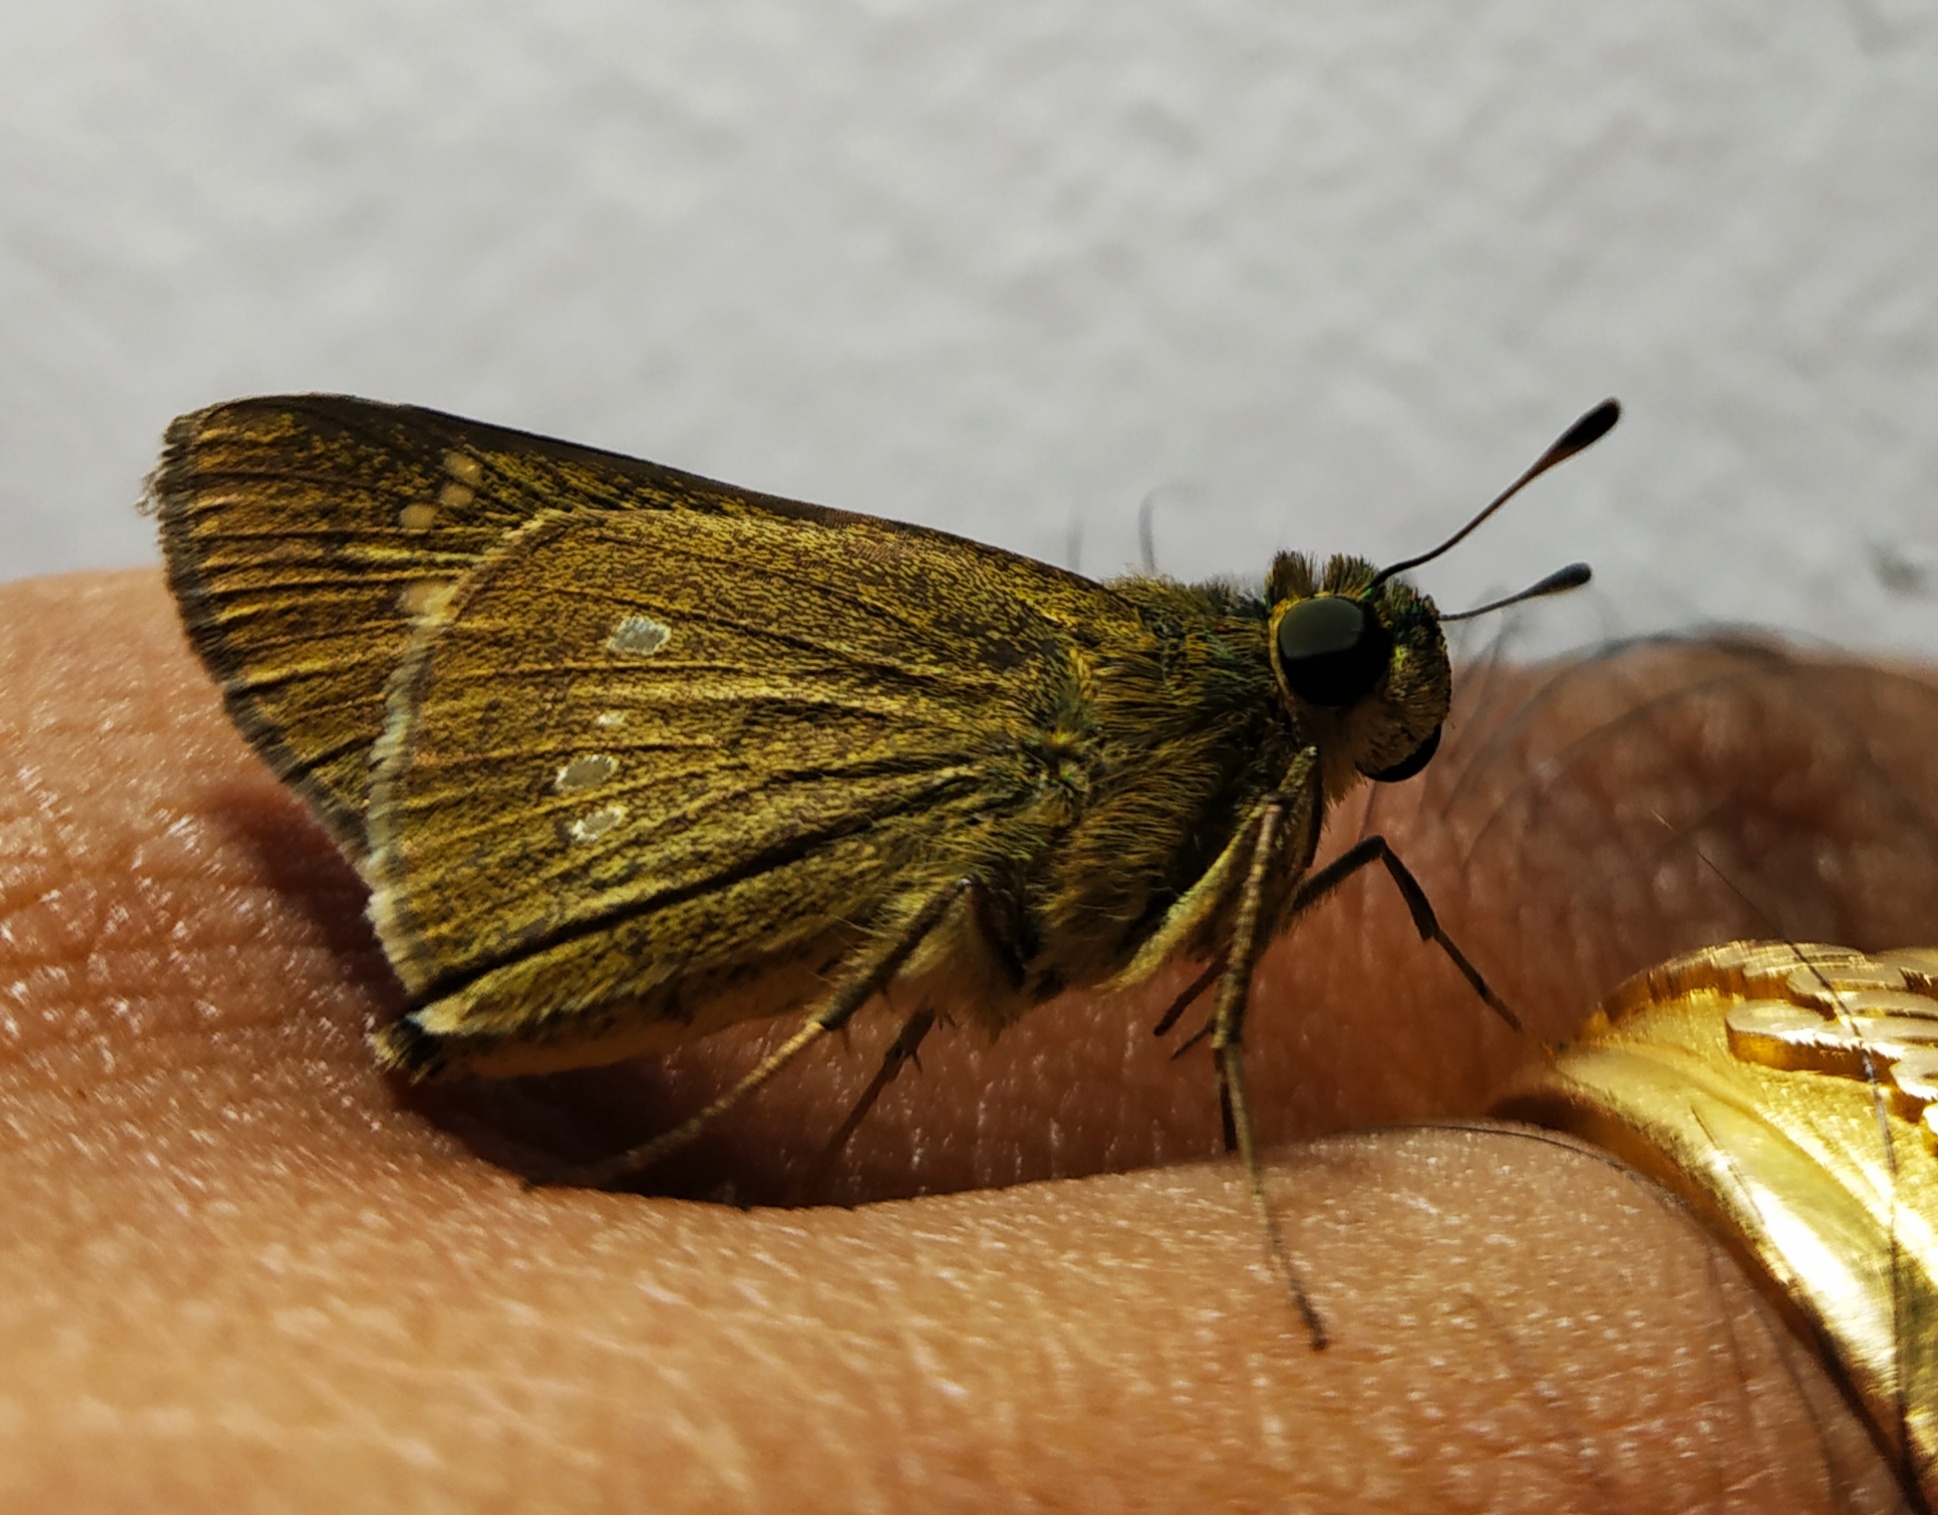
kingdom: Animalia
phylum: Arthropoda
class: Insecta
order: Lepidoptera
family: Hesperiidae
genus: Borbo
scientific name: Borbo cinnara
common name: Formosan swift
